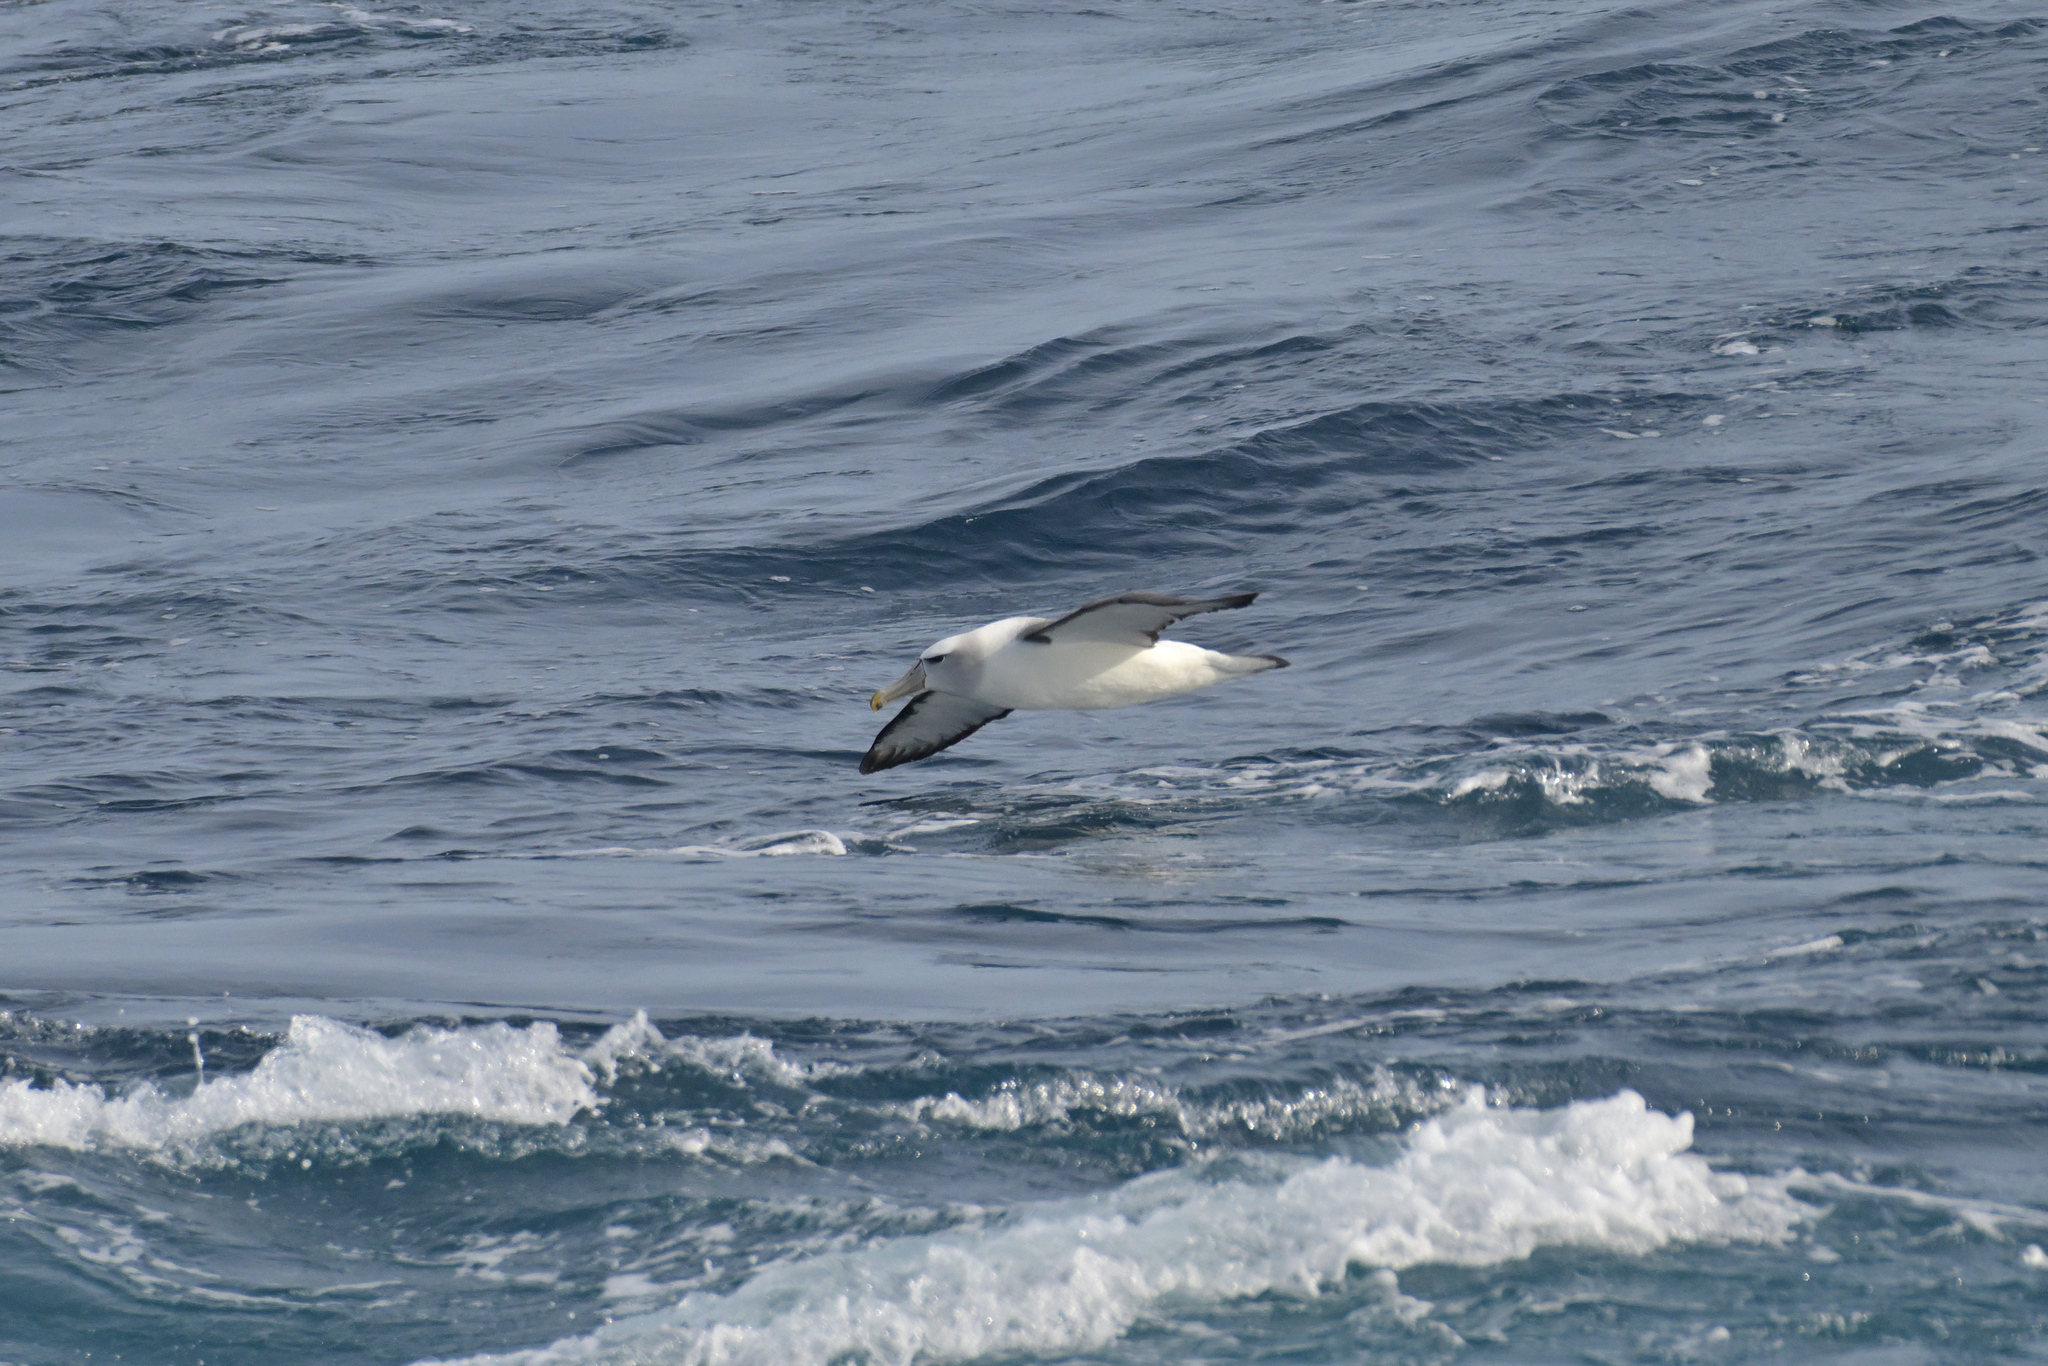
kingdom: Animalia
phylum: Chordata
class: Aves
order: Procellariiformes
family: Diomedeidae
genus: Thalassarche
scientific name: Thalassarche cauta
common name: Shy albatross
